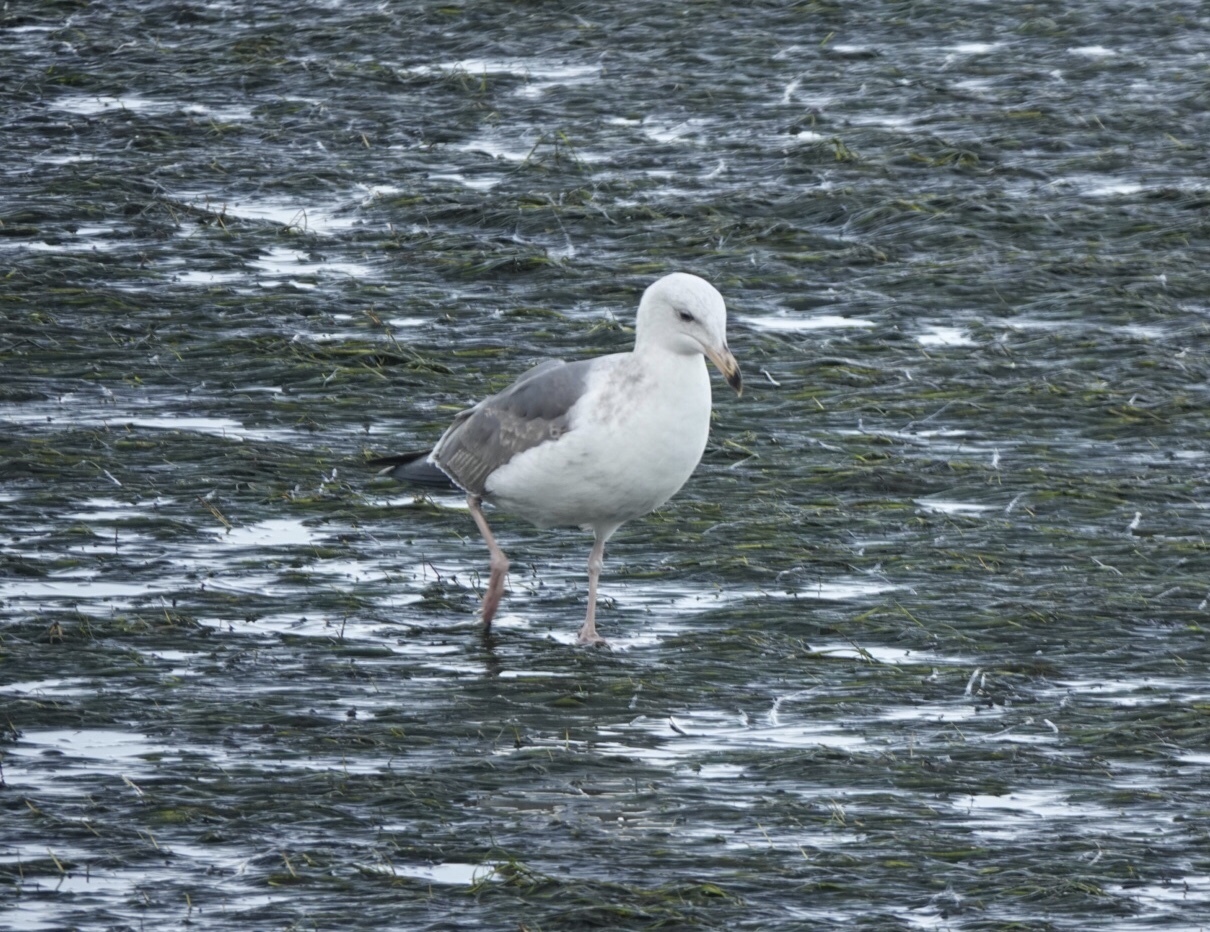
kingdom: Animalia
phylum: Chordata
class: Aves
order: Charadriiformes
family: Laridae
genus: Larus
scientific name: Larus occidentalis
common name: Western gull
